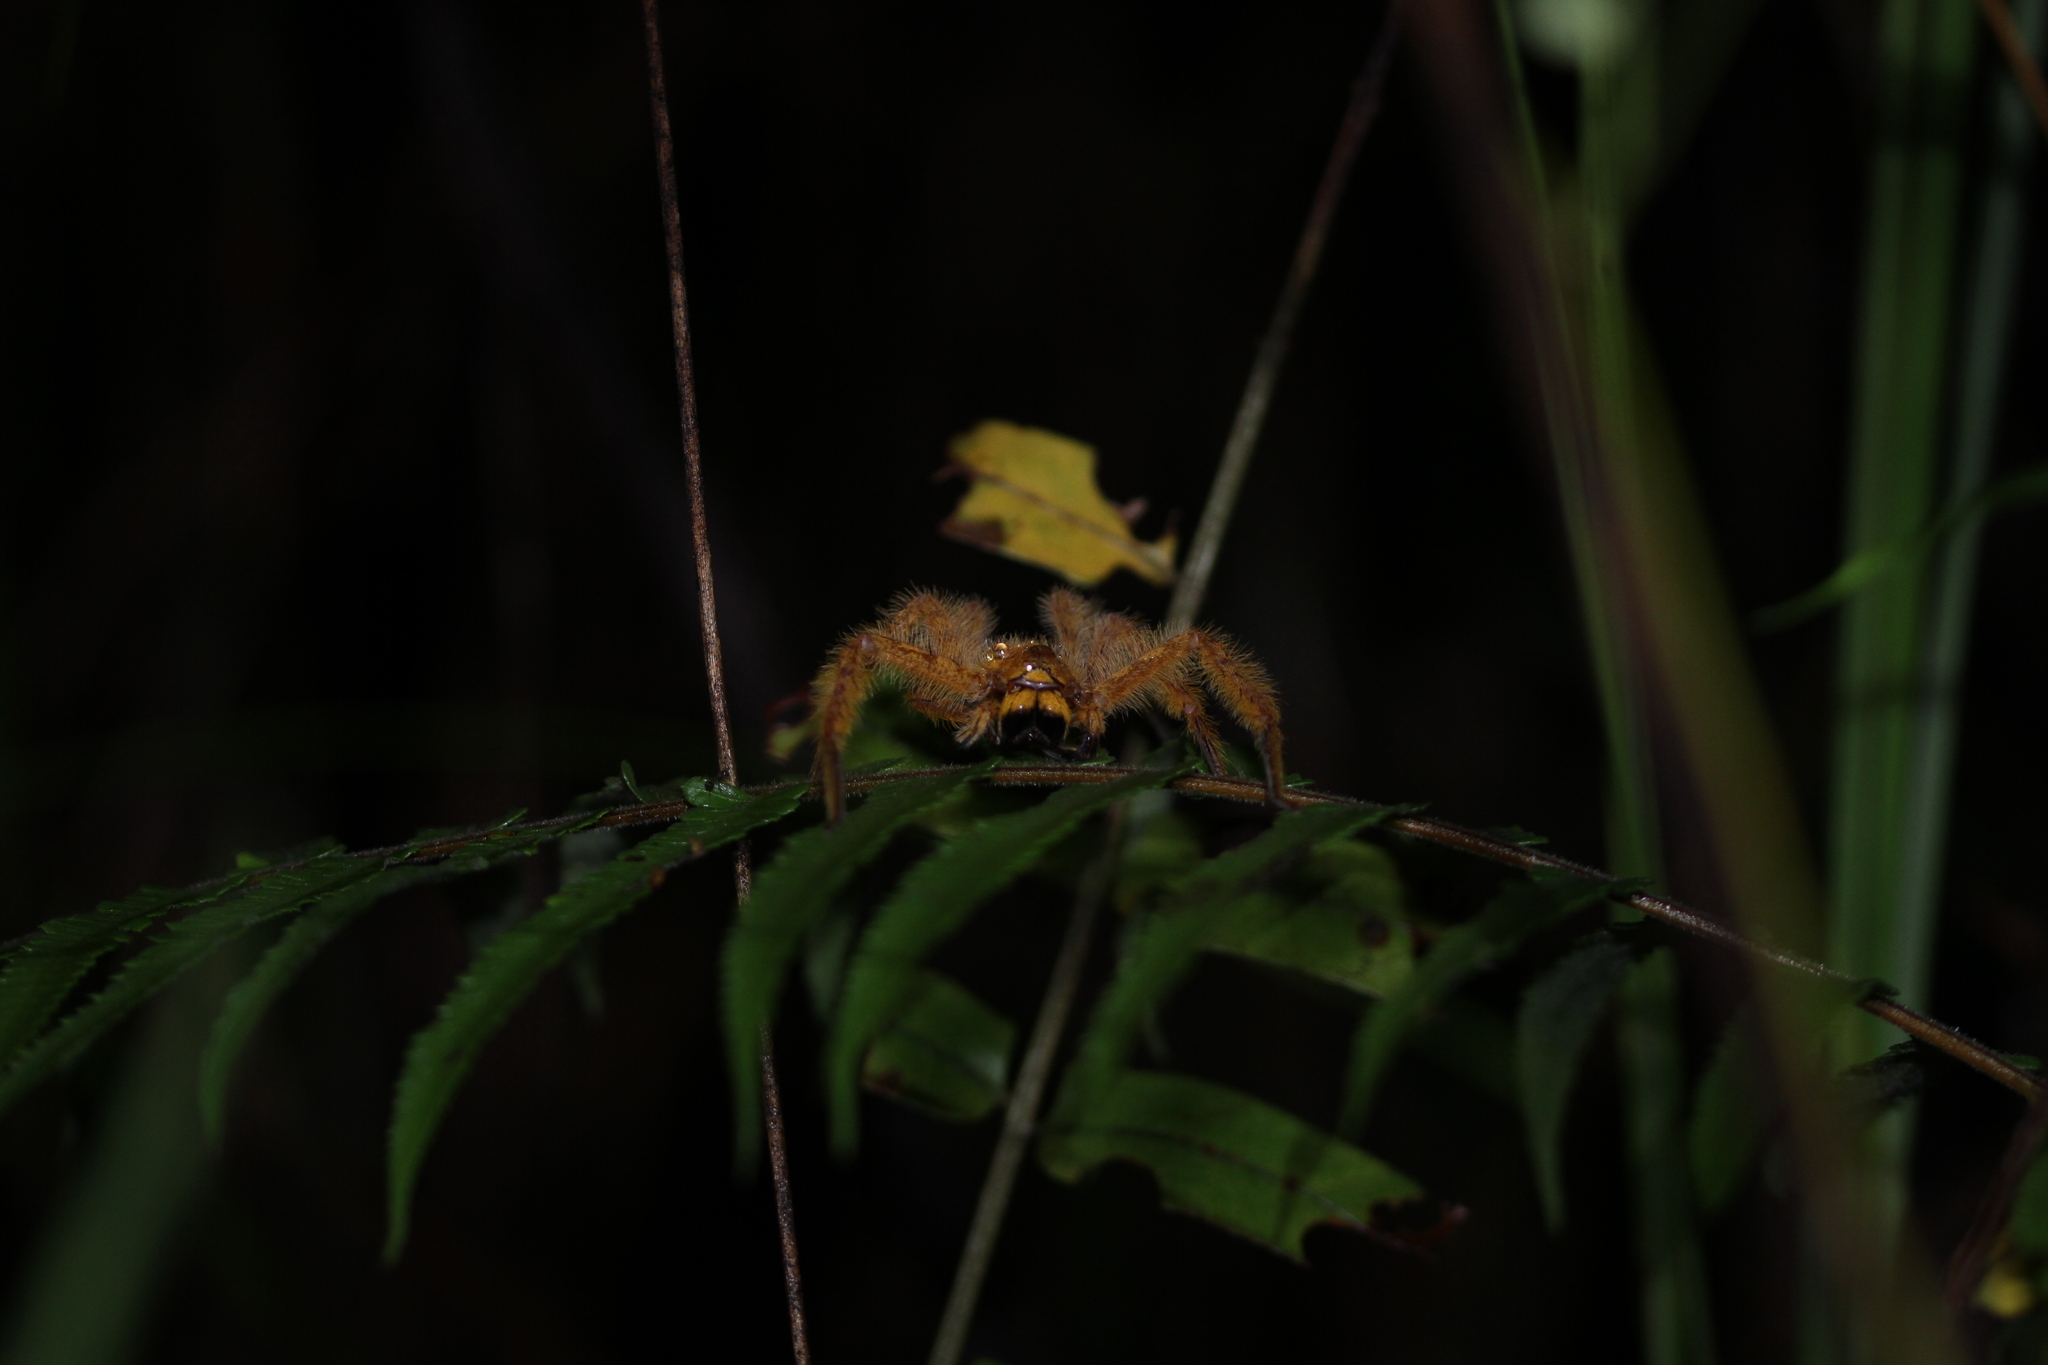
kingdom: Animalia
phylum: Arthropoda
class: Arachnida
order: Araneae
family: Sparassidae
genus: Heteropoda
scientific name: Heteropoda davidbowie
